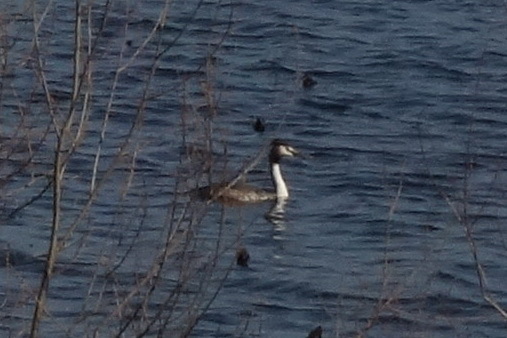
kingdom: Animalia
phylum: Chordata
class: Aves
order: Podicipediformes
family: Podicipedidae
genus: Podiceps
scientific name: Podiceps cristatus
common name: Great crested grebe
